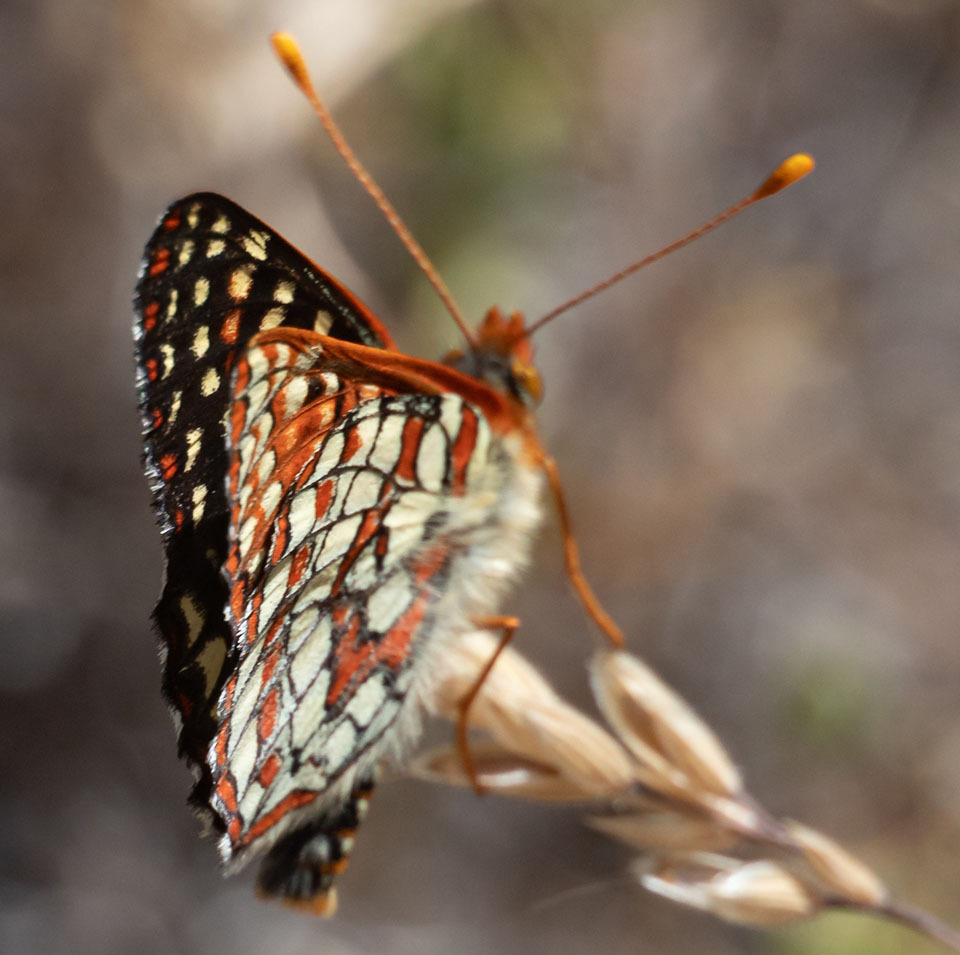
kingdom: Animalia
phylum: Arthropoda
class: Insecta
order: Lepidoptera
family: Nymphalidae
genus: Occidryas
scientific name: Occidryas chalcedona
